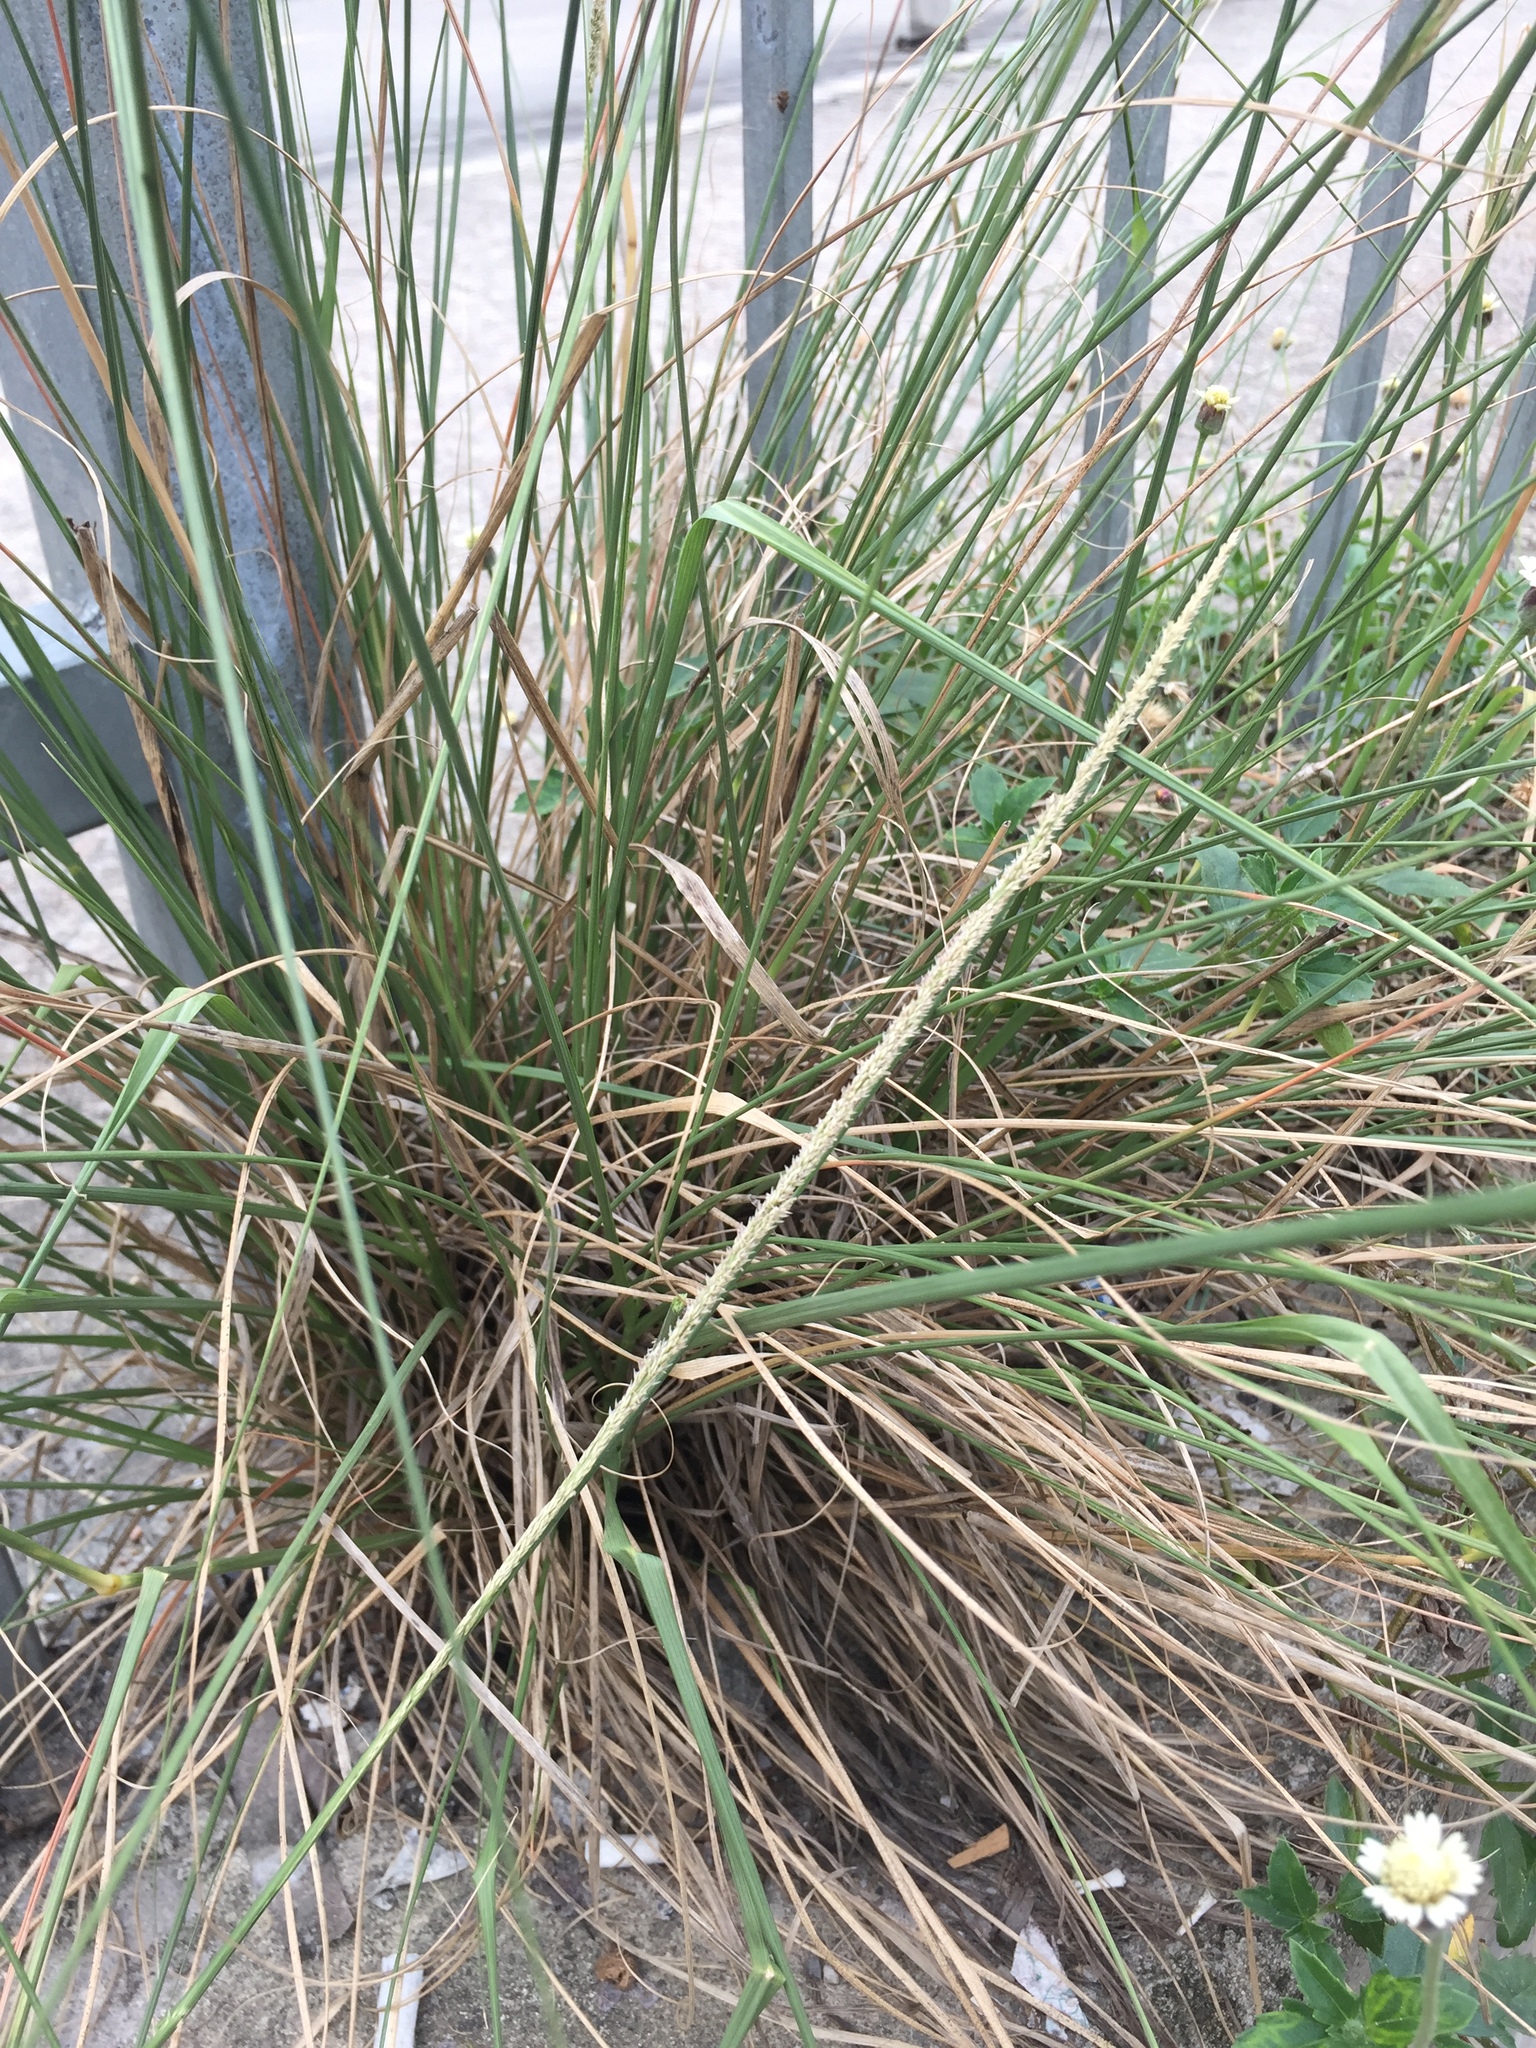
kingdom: Plantae
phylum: Tracheophyta
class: Liliopsida
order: Poales
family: Poaceae
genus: Sporobolus
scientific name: Sporobolus fertilis
